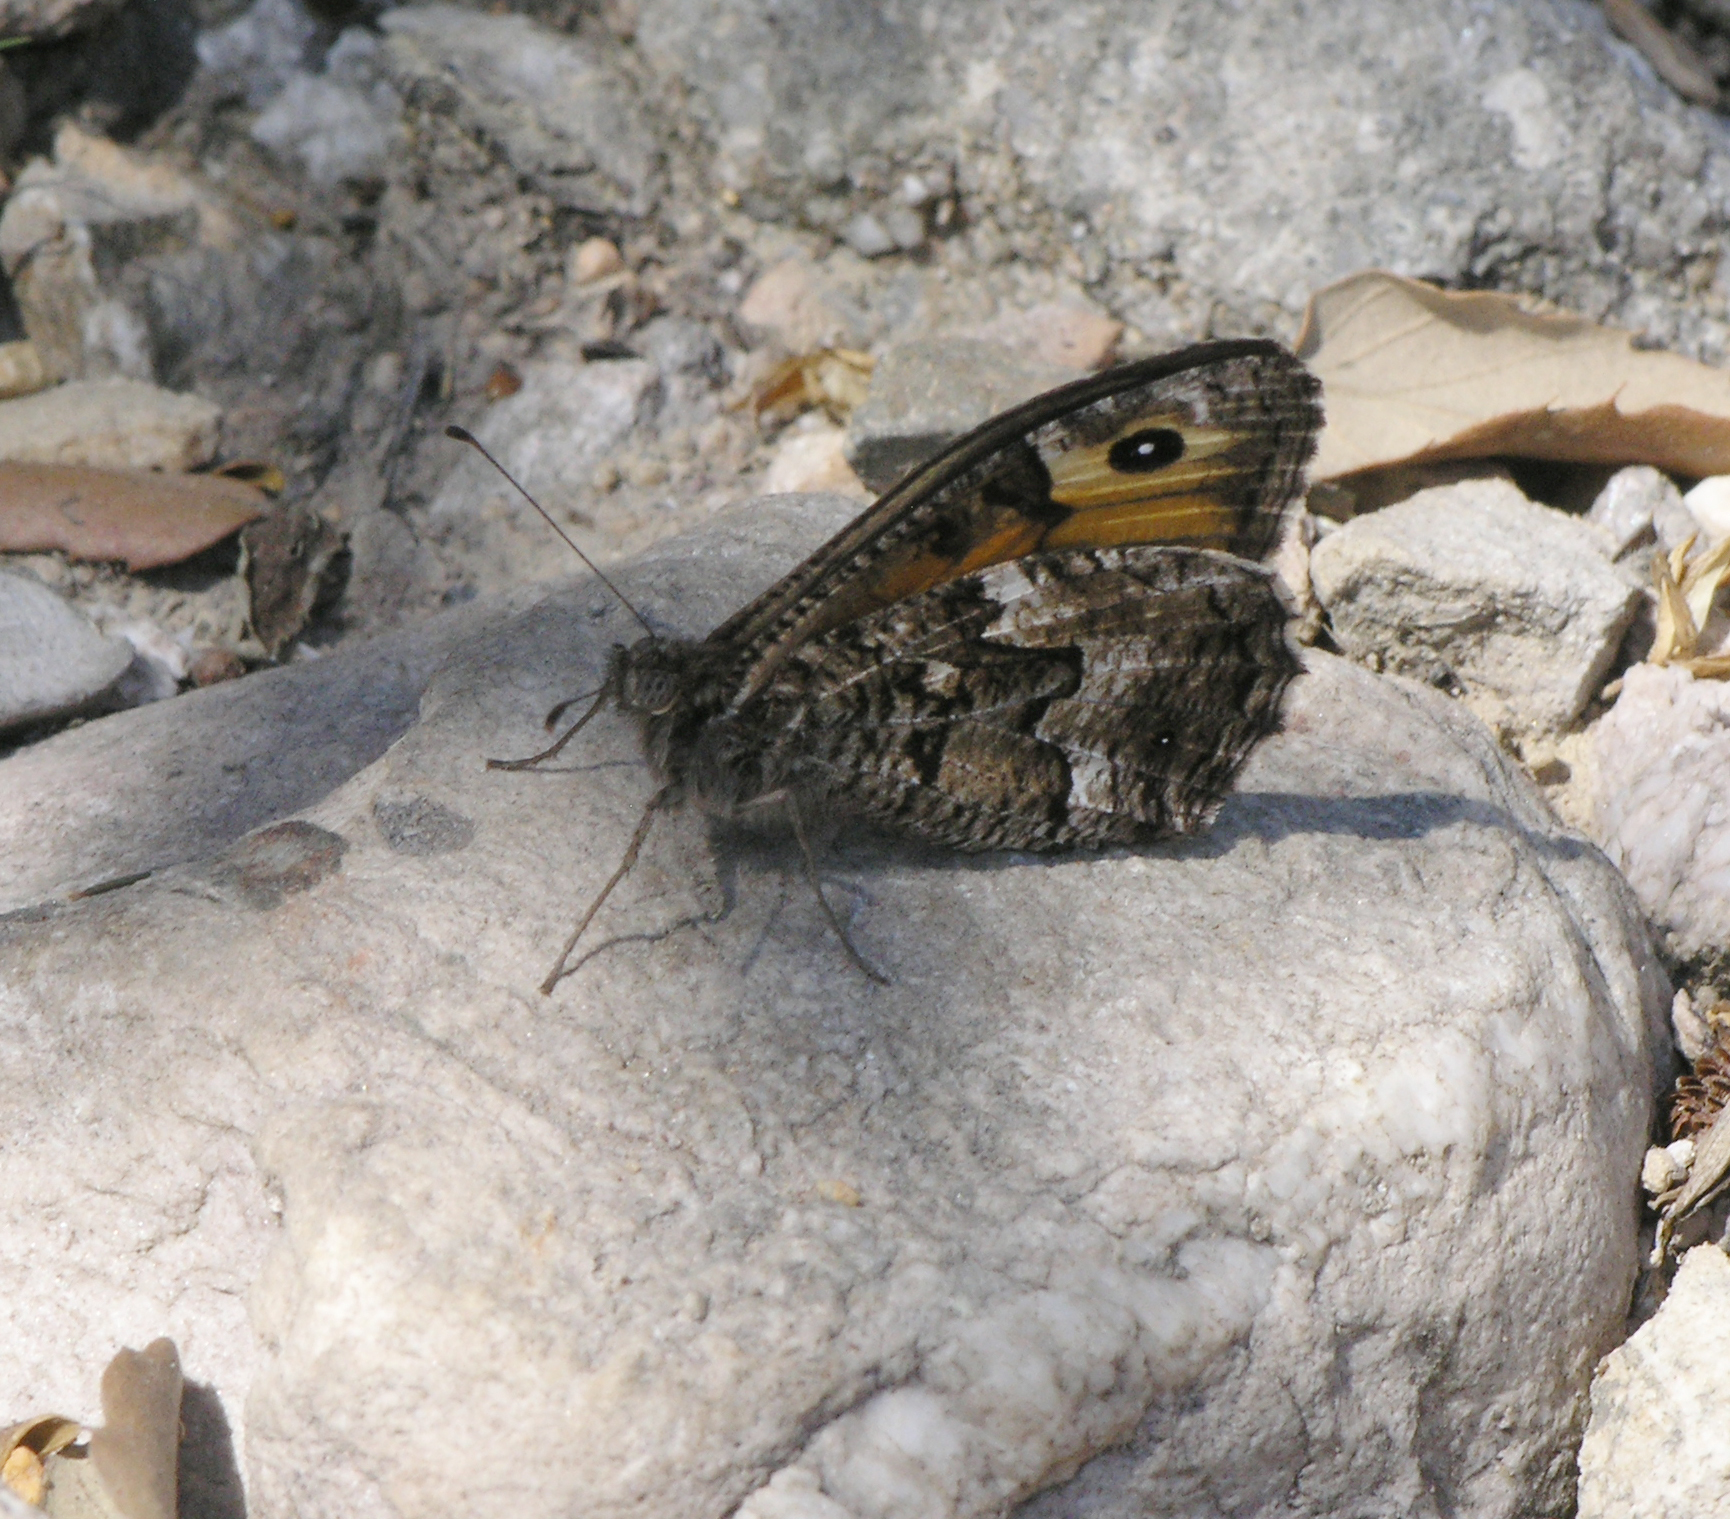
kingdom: Animalia
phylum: Arthropoda
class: Insecta
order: Lepidoptera
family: Nymphalidae
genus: Hipparchia
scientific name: Hipparchia semele
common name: Grayling
